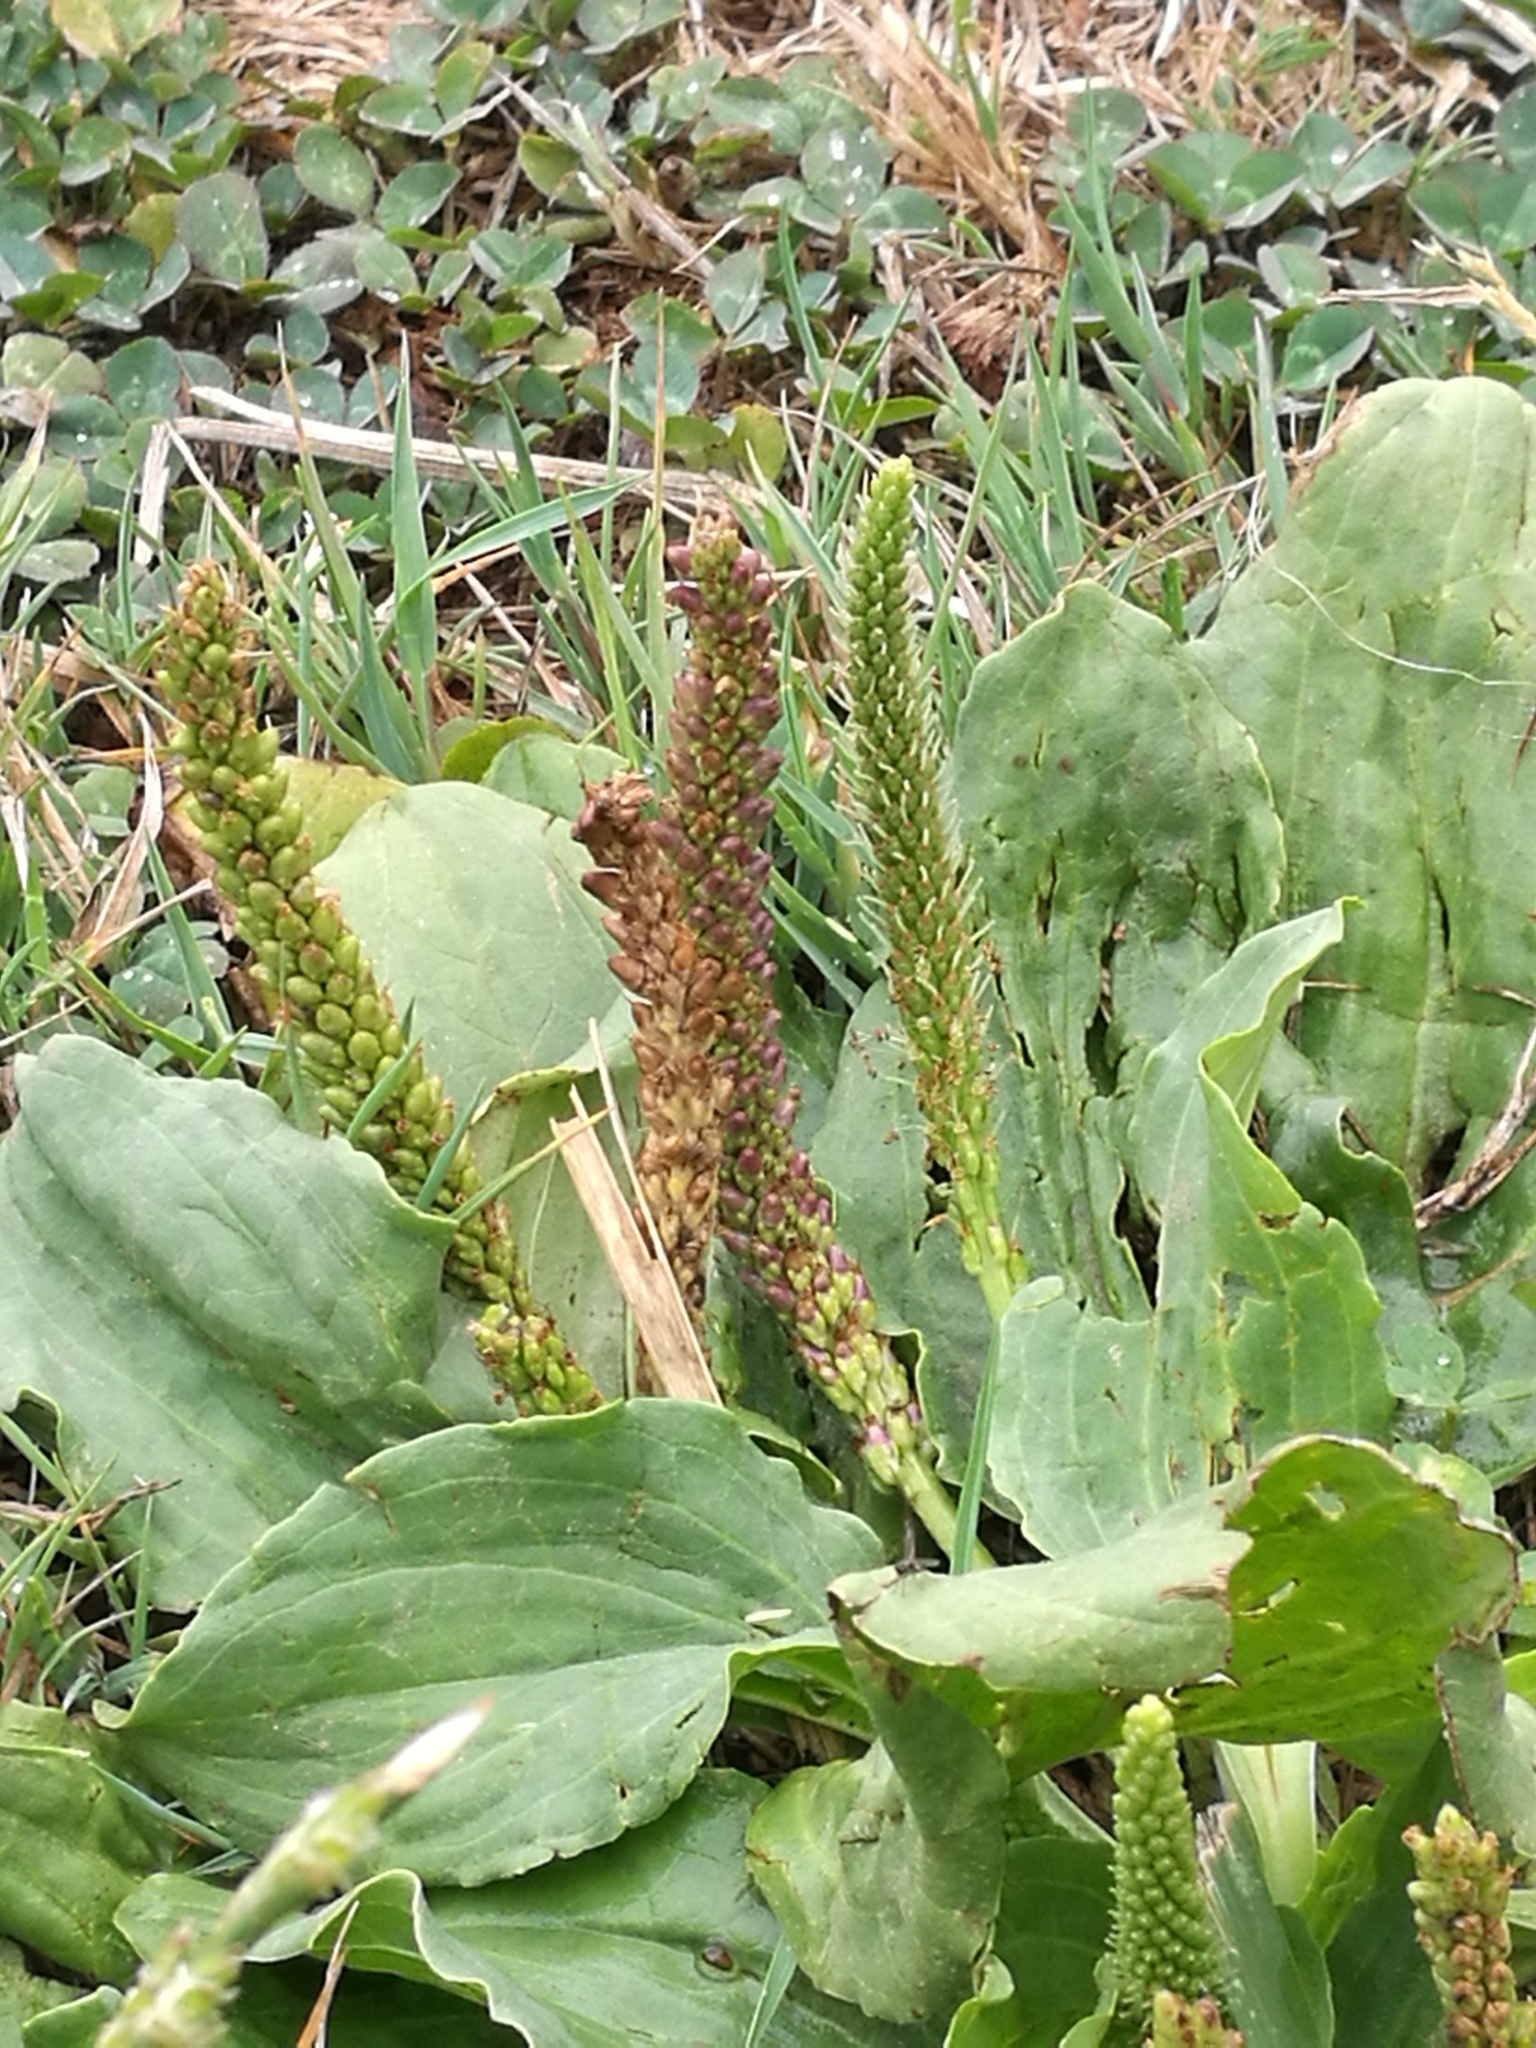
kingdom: Plantae
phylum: Tracheophyta
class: Magnoliopsida
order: Lamiales
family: Plantaginaceae
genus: Plantago
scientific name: Plantago major
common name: Common plantain
